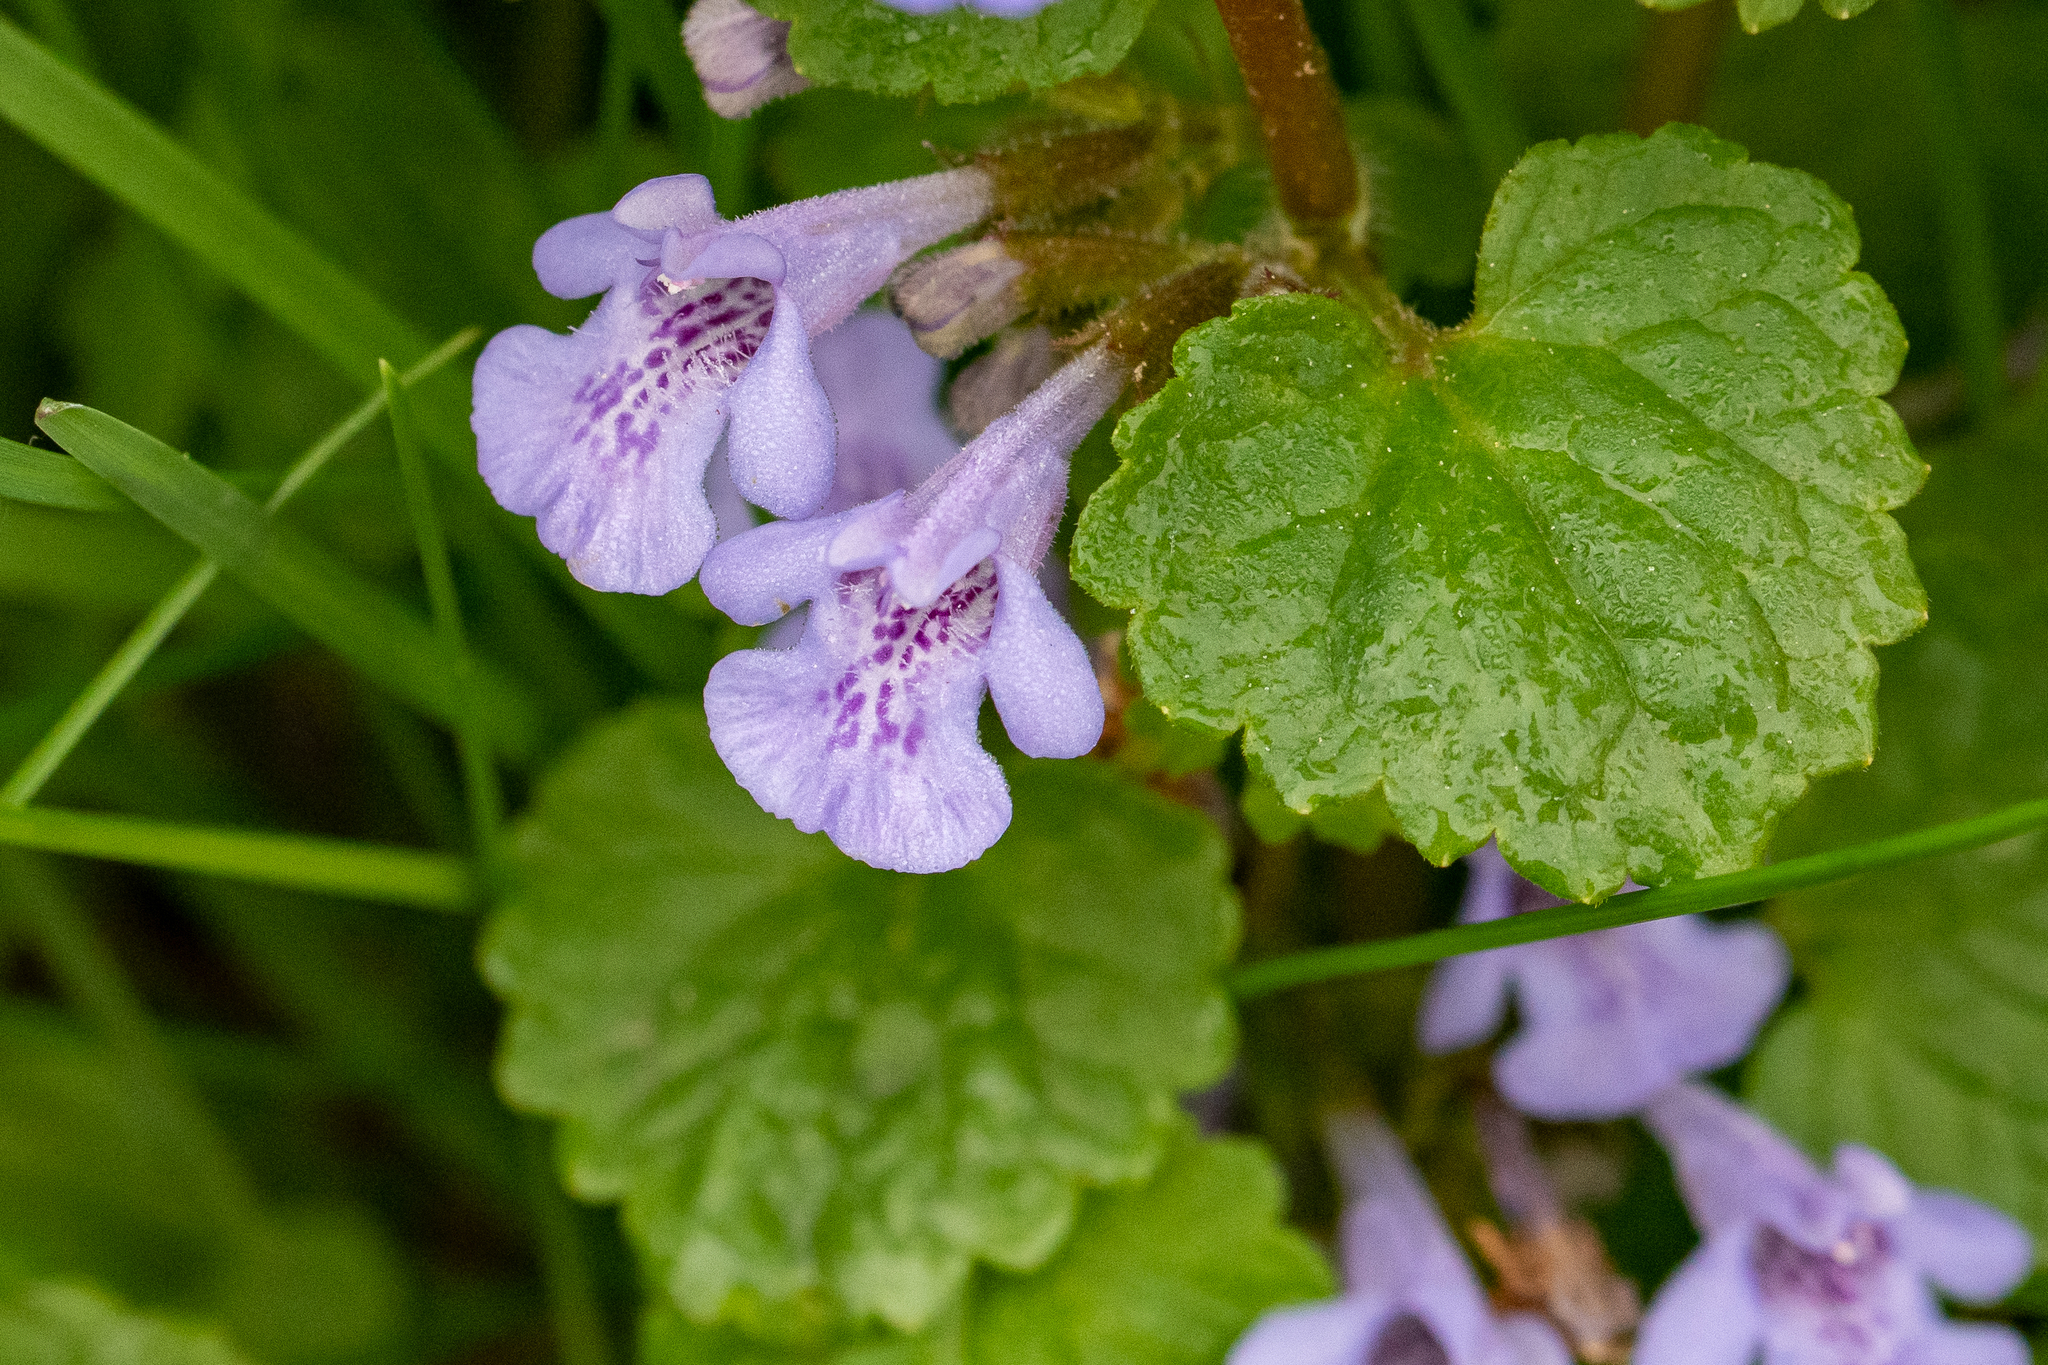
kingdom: Plantae
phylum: Tracheophyta
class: Magnoliopsida
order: Lamiales
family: Lamiaceae
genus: Glechoma
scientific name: Glechoma hederacea
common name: Ground ivy
